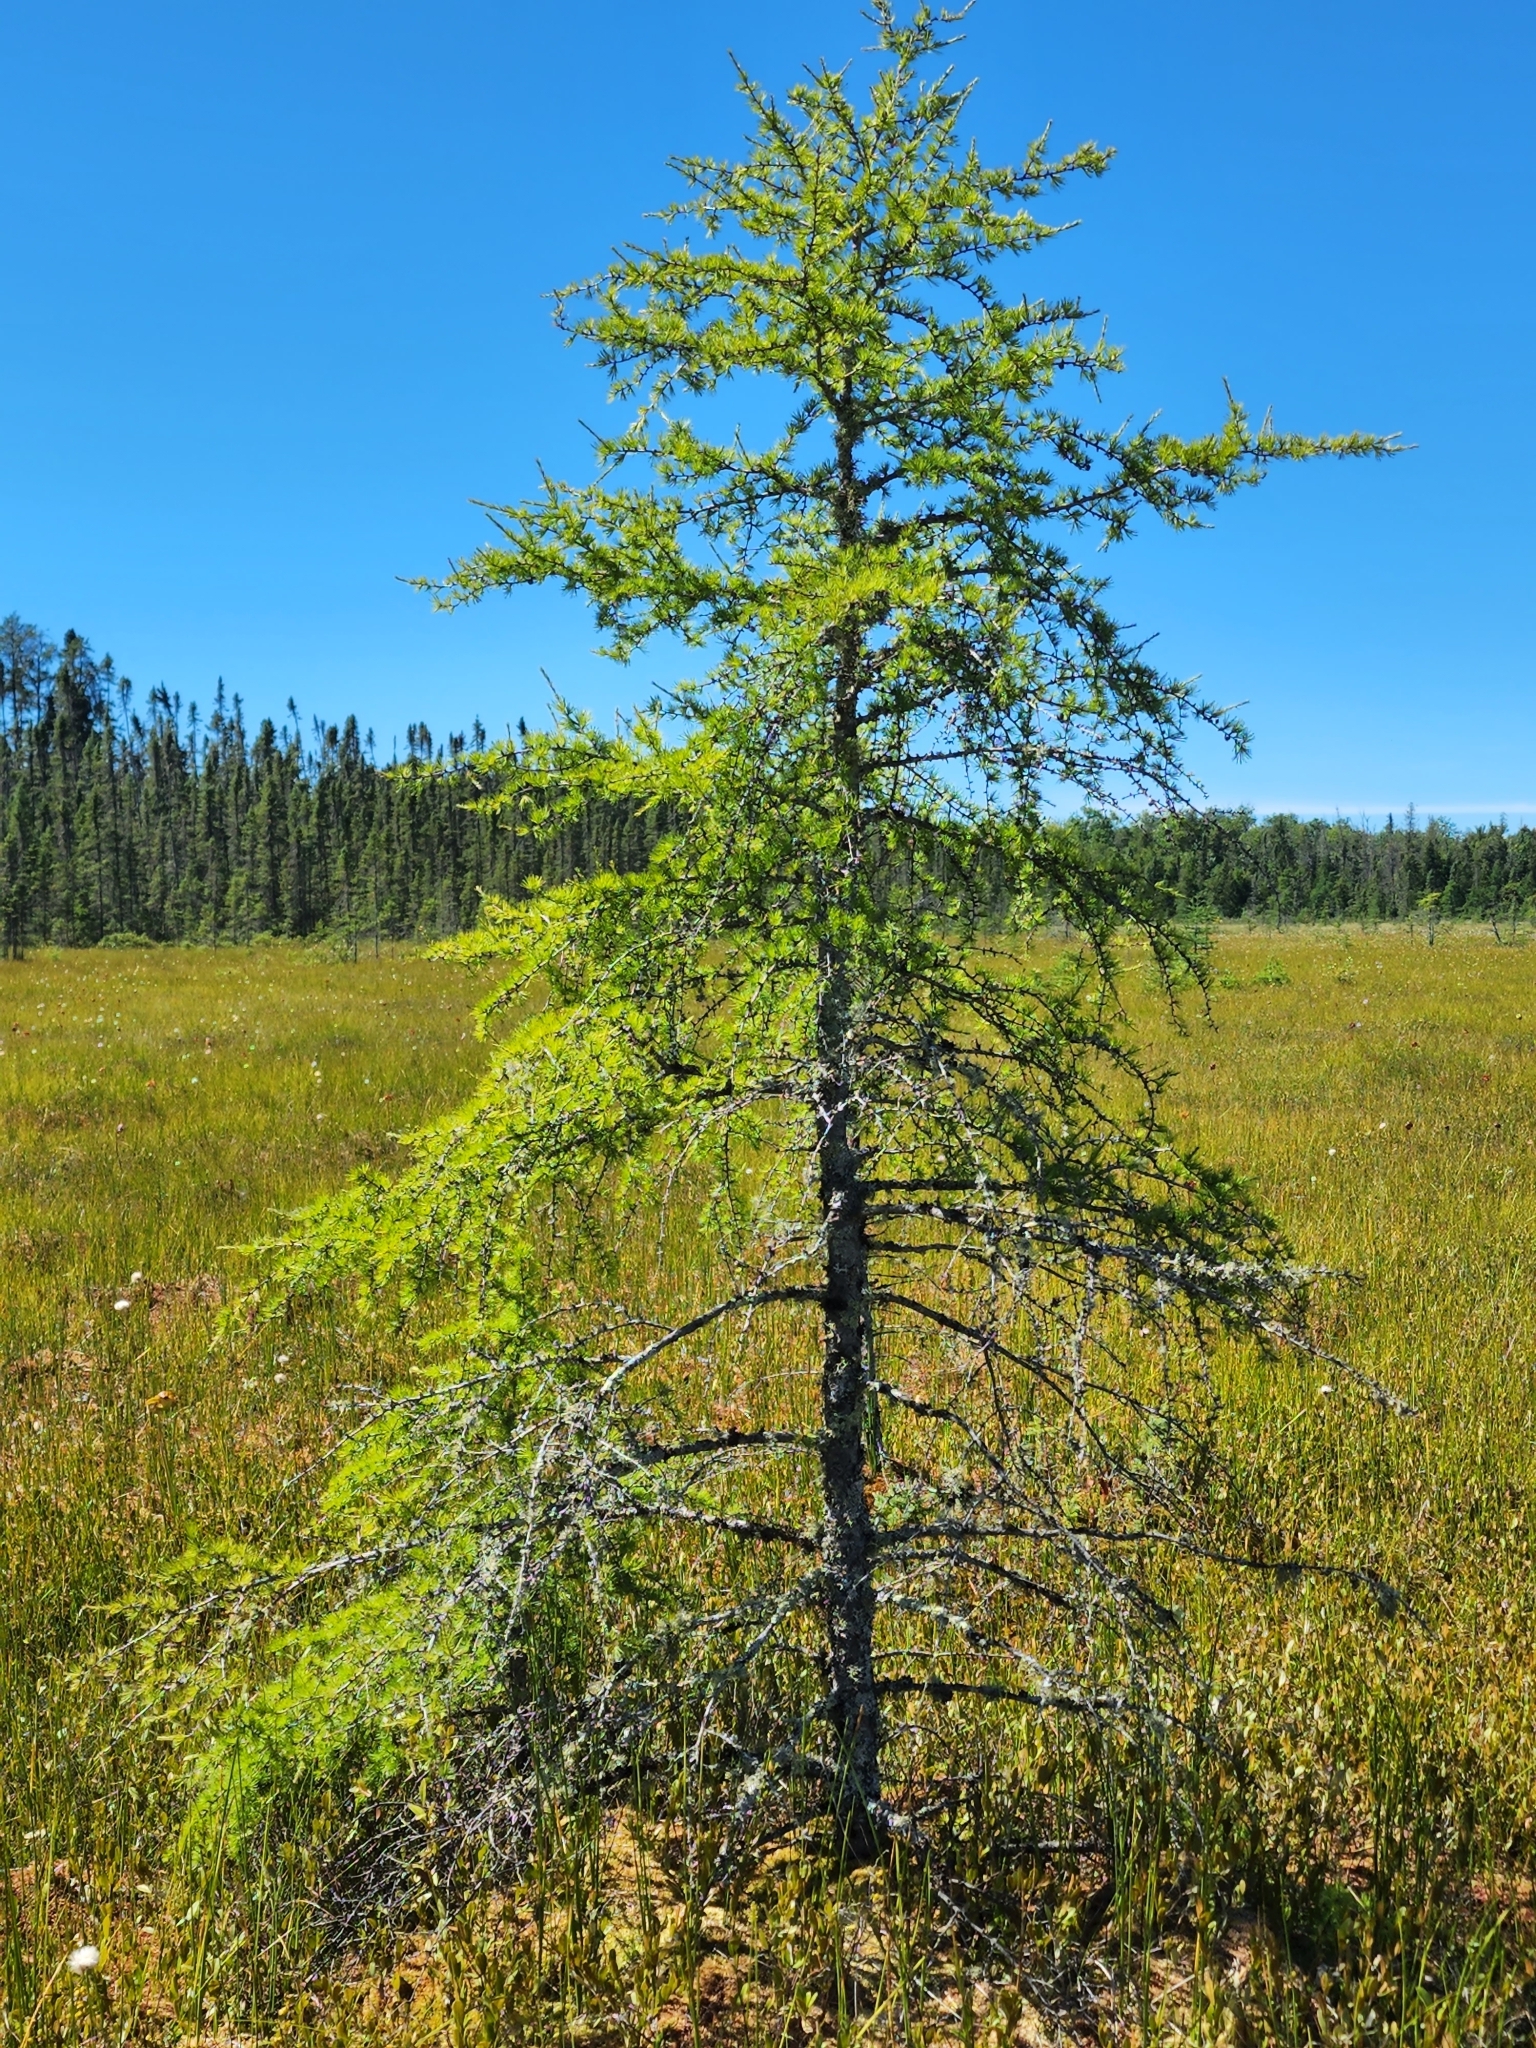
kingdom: Plantae
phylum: Tracheophyta
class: Pinopsida
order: Pinales
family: Pinaceae
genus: Larix
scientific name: Larix laricina
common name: American larch
